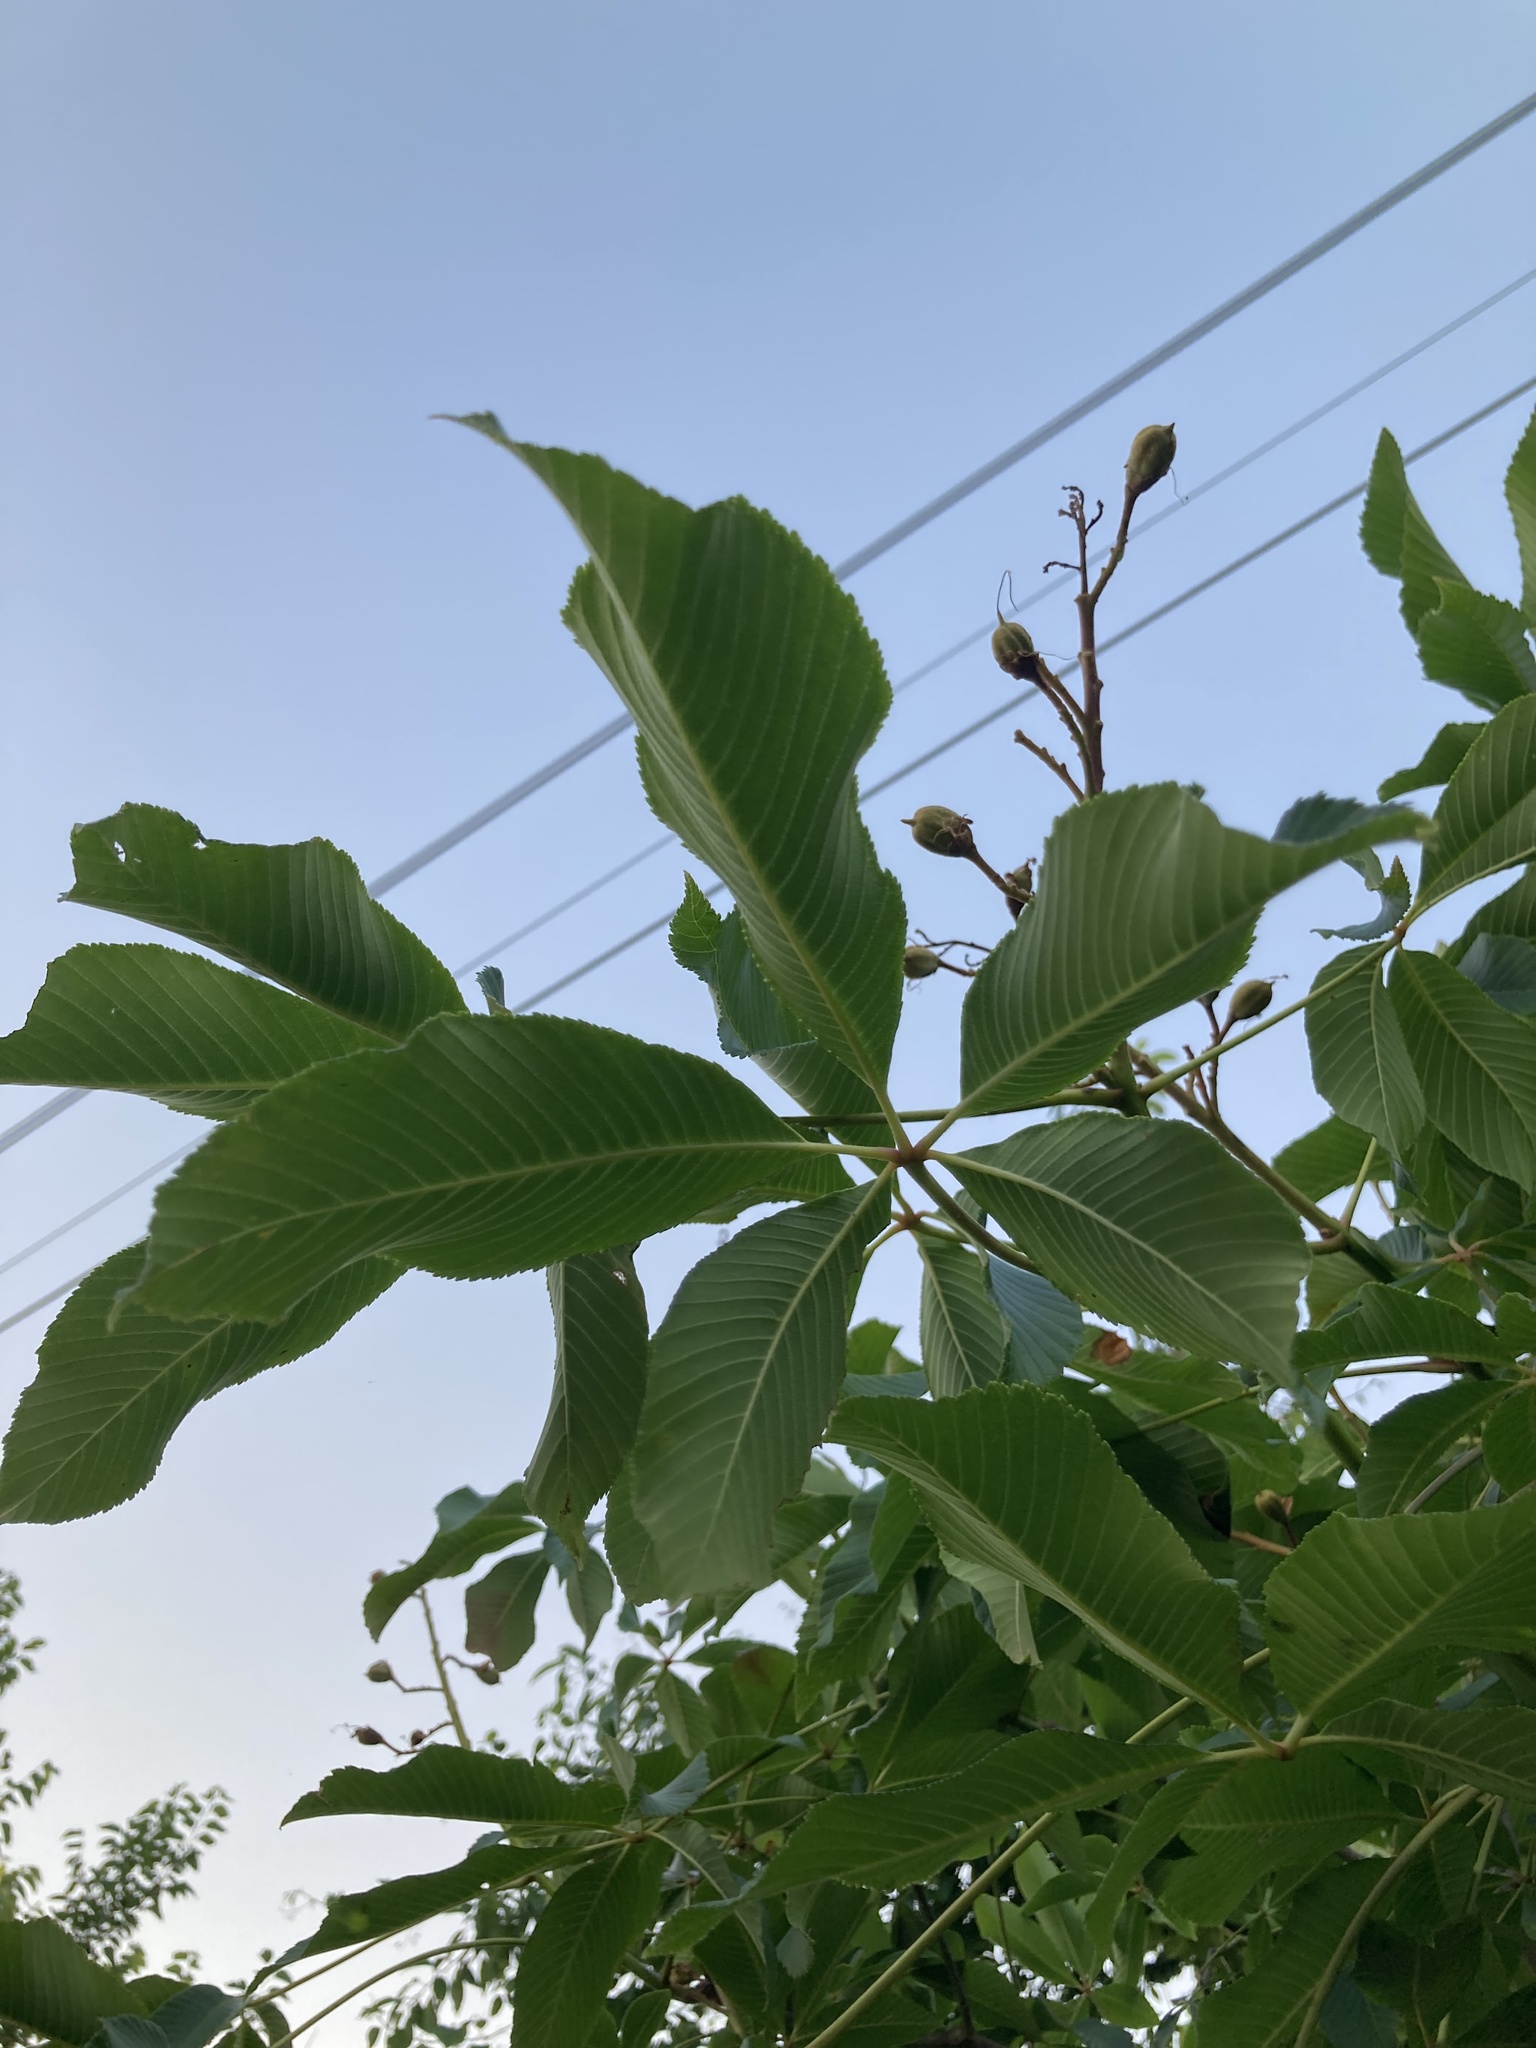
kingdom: Plantae
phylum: Tracheophyta
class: Magnoliopsida
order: Sapindales
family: Sapindaceae
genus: Aesculus
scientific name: Aesculus pavia
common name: Red buckeye
